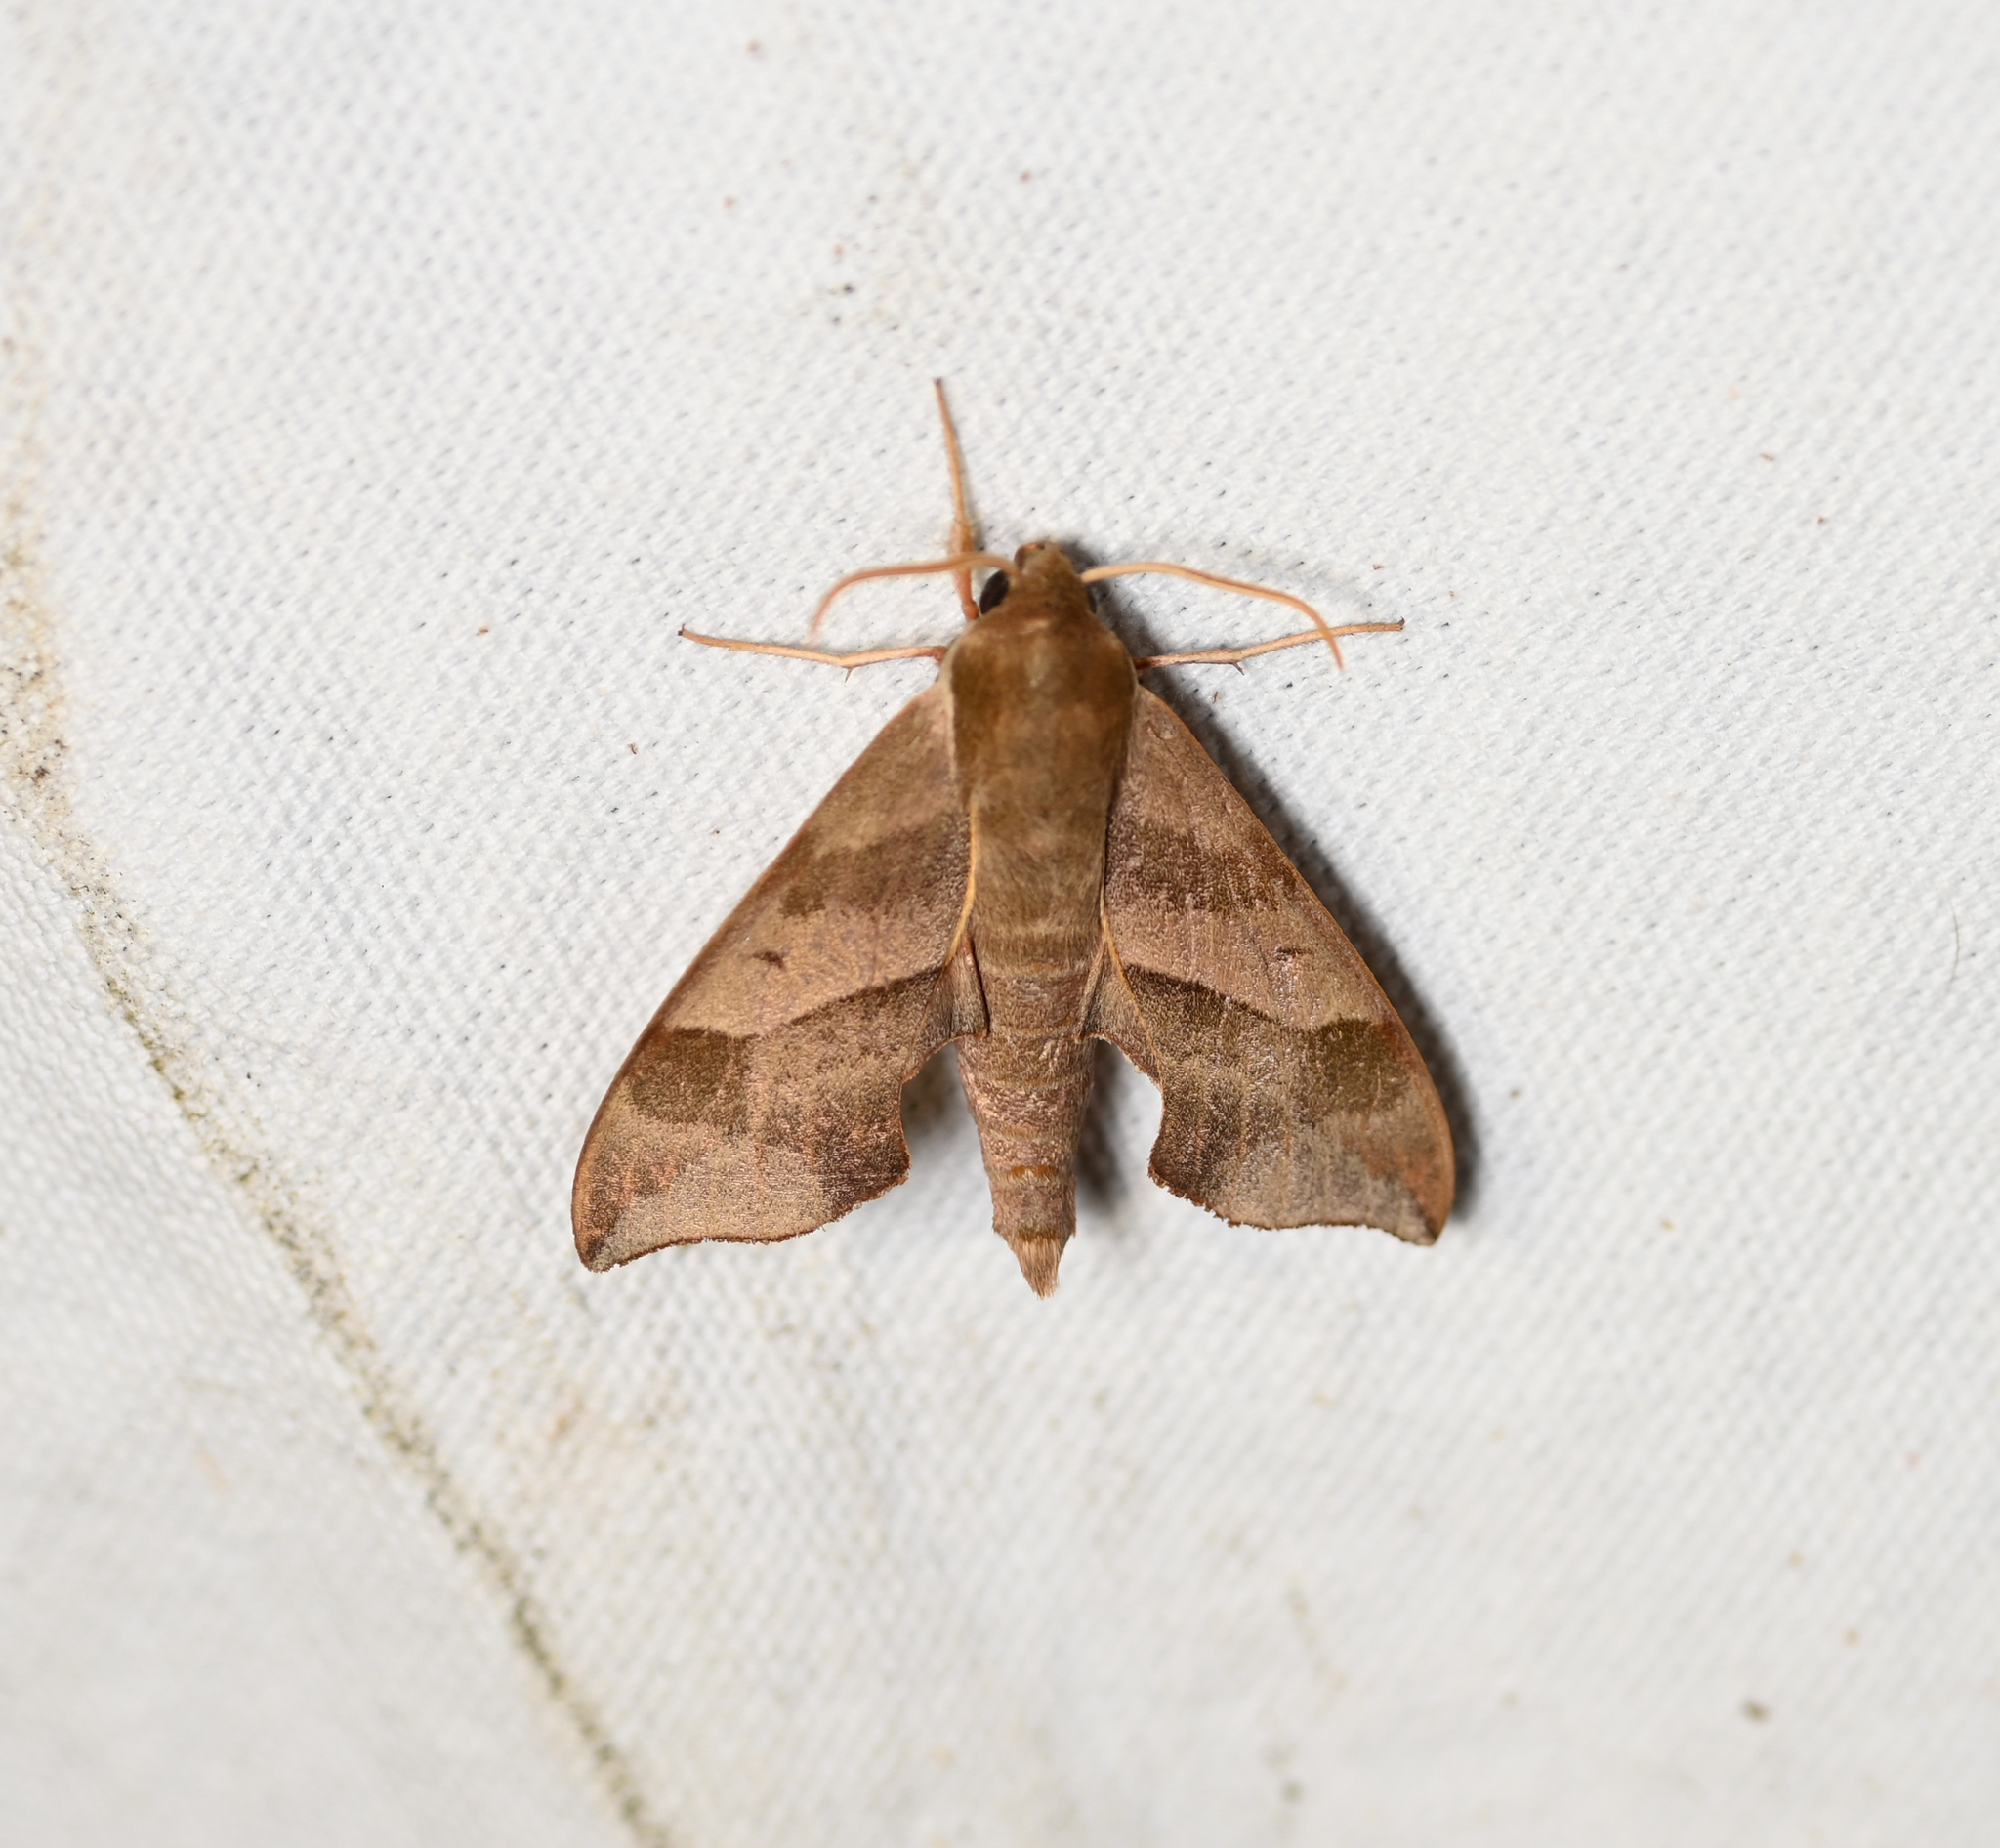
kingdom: Animalia
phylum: Arthropoda
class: Insecta
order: Lepidoptera
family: Sphingidae
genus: Darapsa
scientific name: Darapsa myron
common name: Hog sphinx
